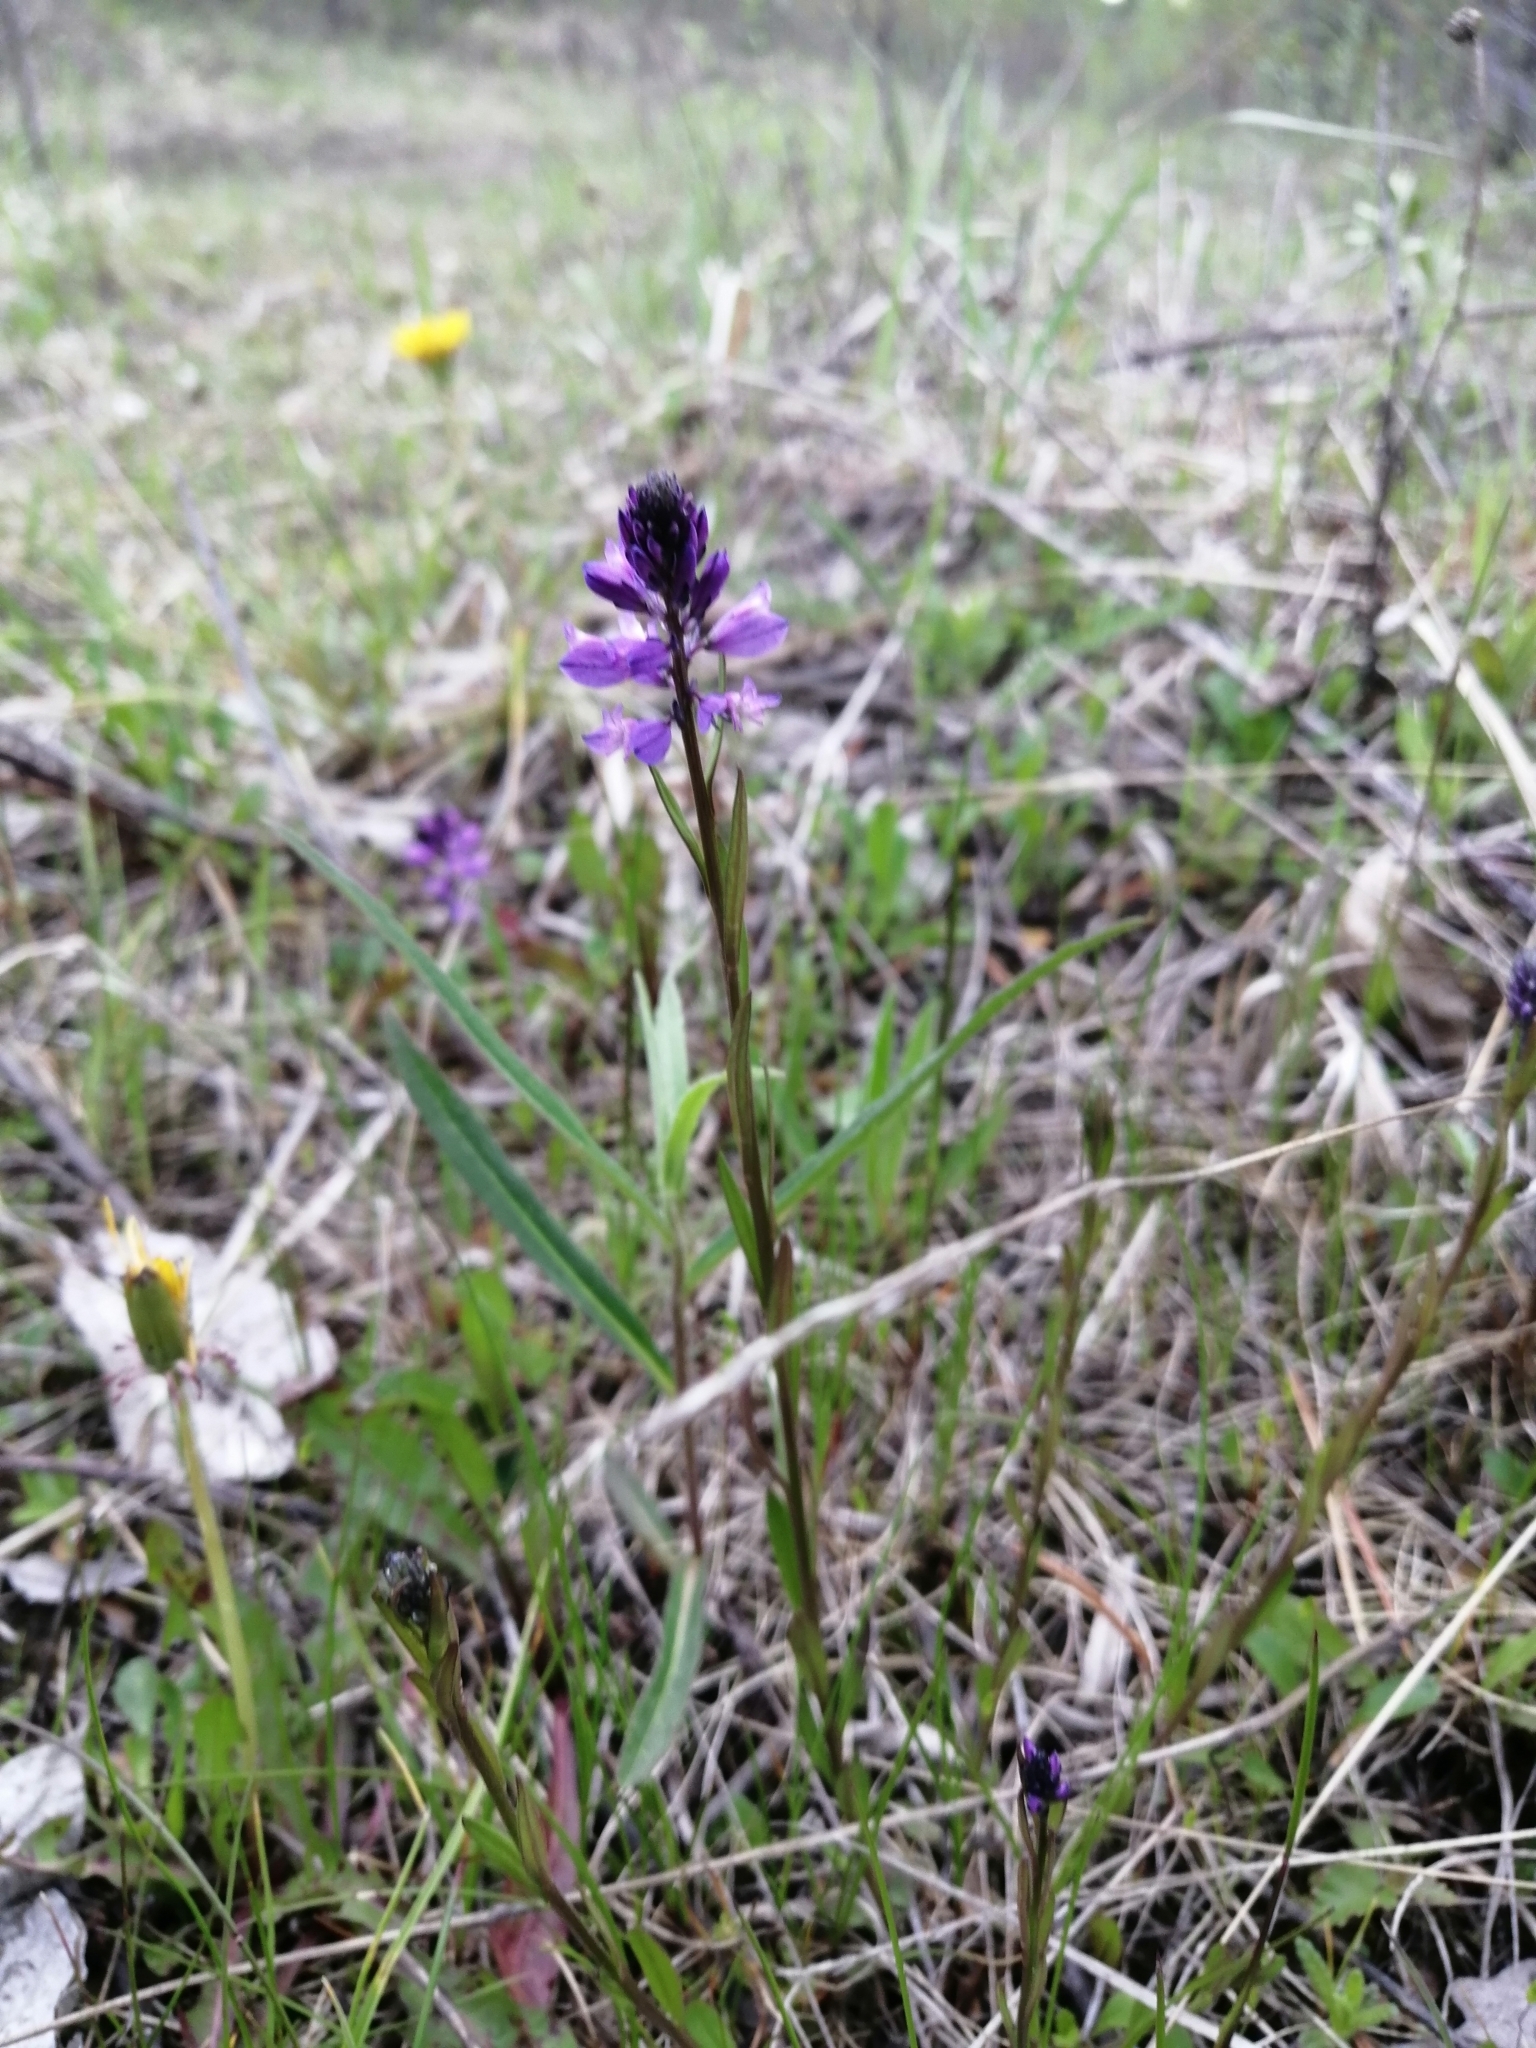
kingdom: Plantae
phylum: Tracheophyta
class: Magnoliopsida
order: Fabales
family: Polygalaceae
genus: Polygala
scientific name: Polygala comosa
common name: Tufted milkwort
